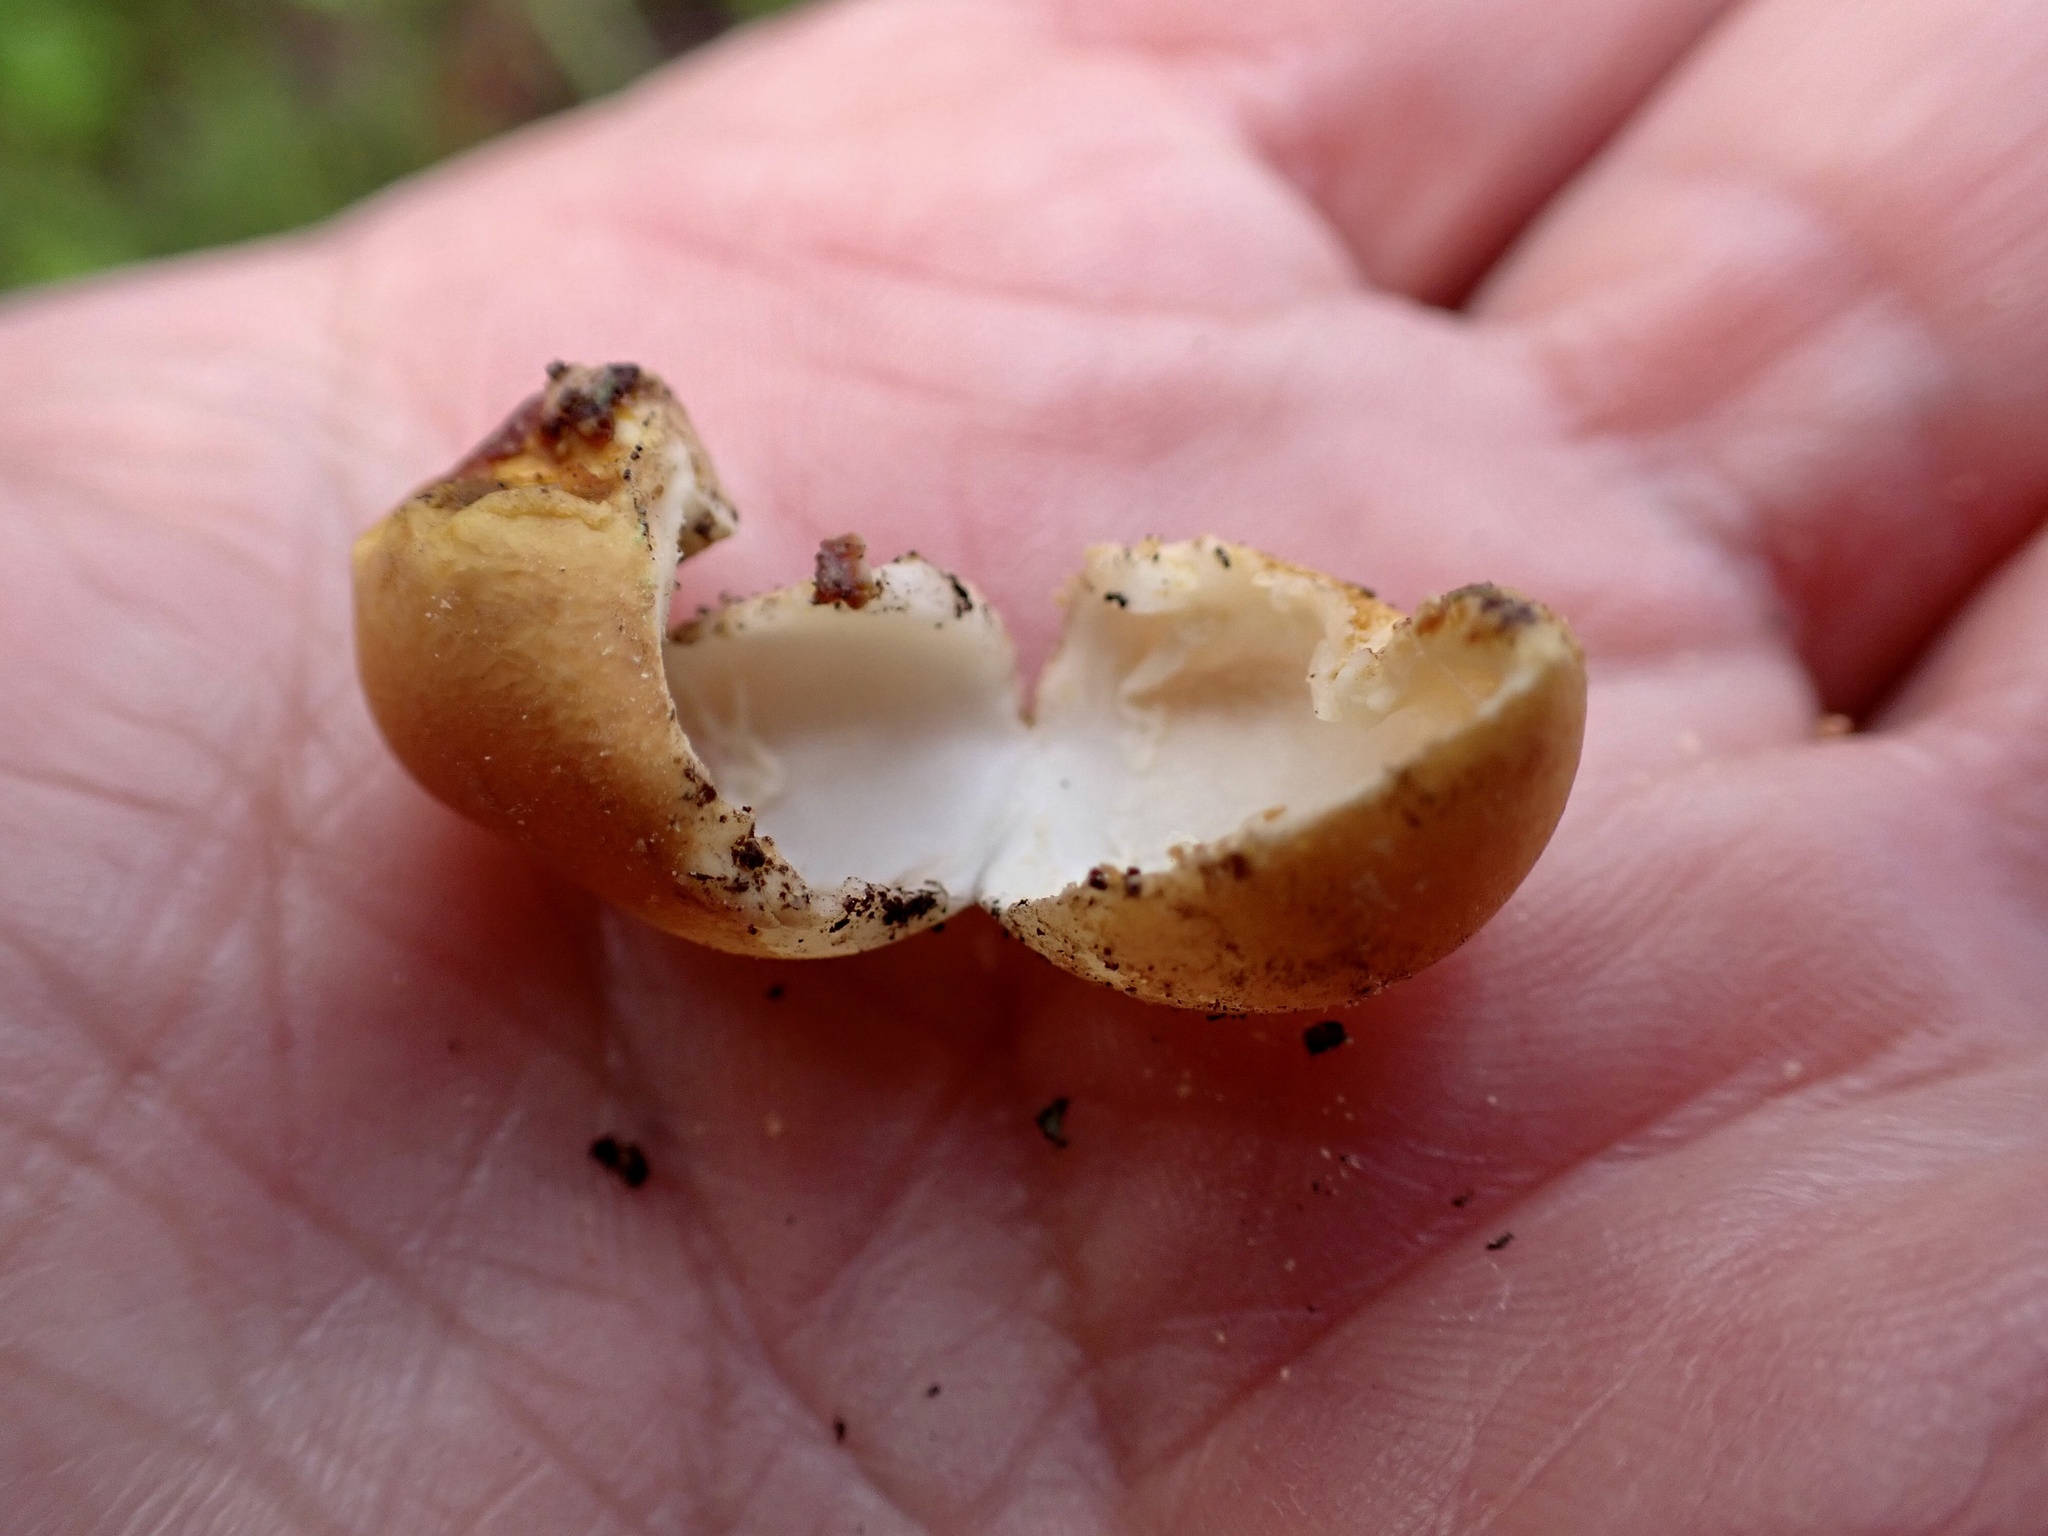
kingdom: Fungi
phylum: Basidiomycota
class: Agaricomycetes
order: Polyporales
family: Polyporaceae
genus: Cryptoporus
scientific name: Cryptoporus volvatus
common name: Veiled polypore
